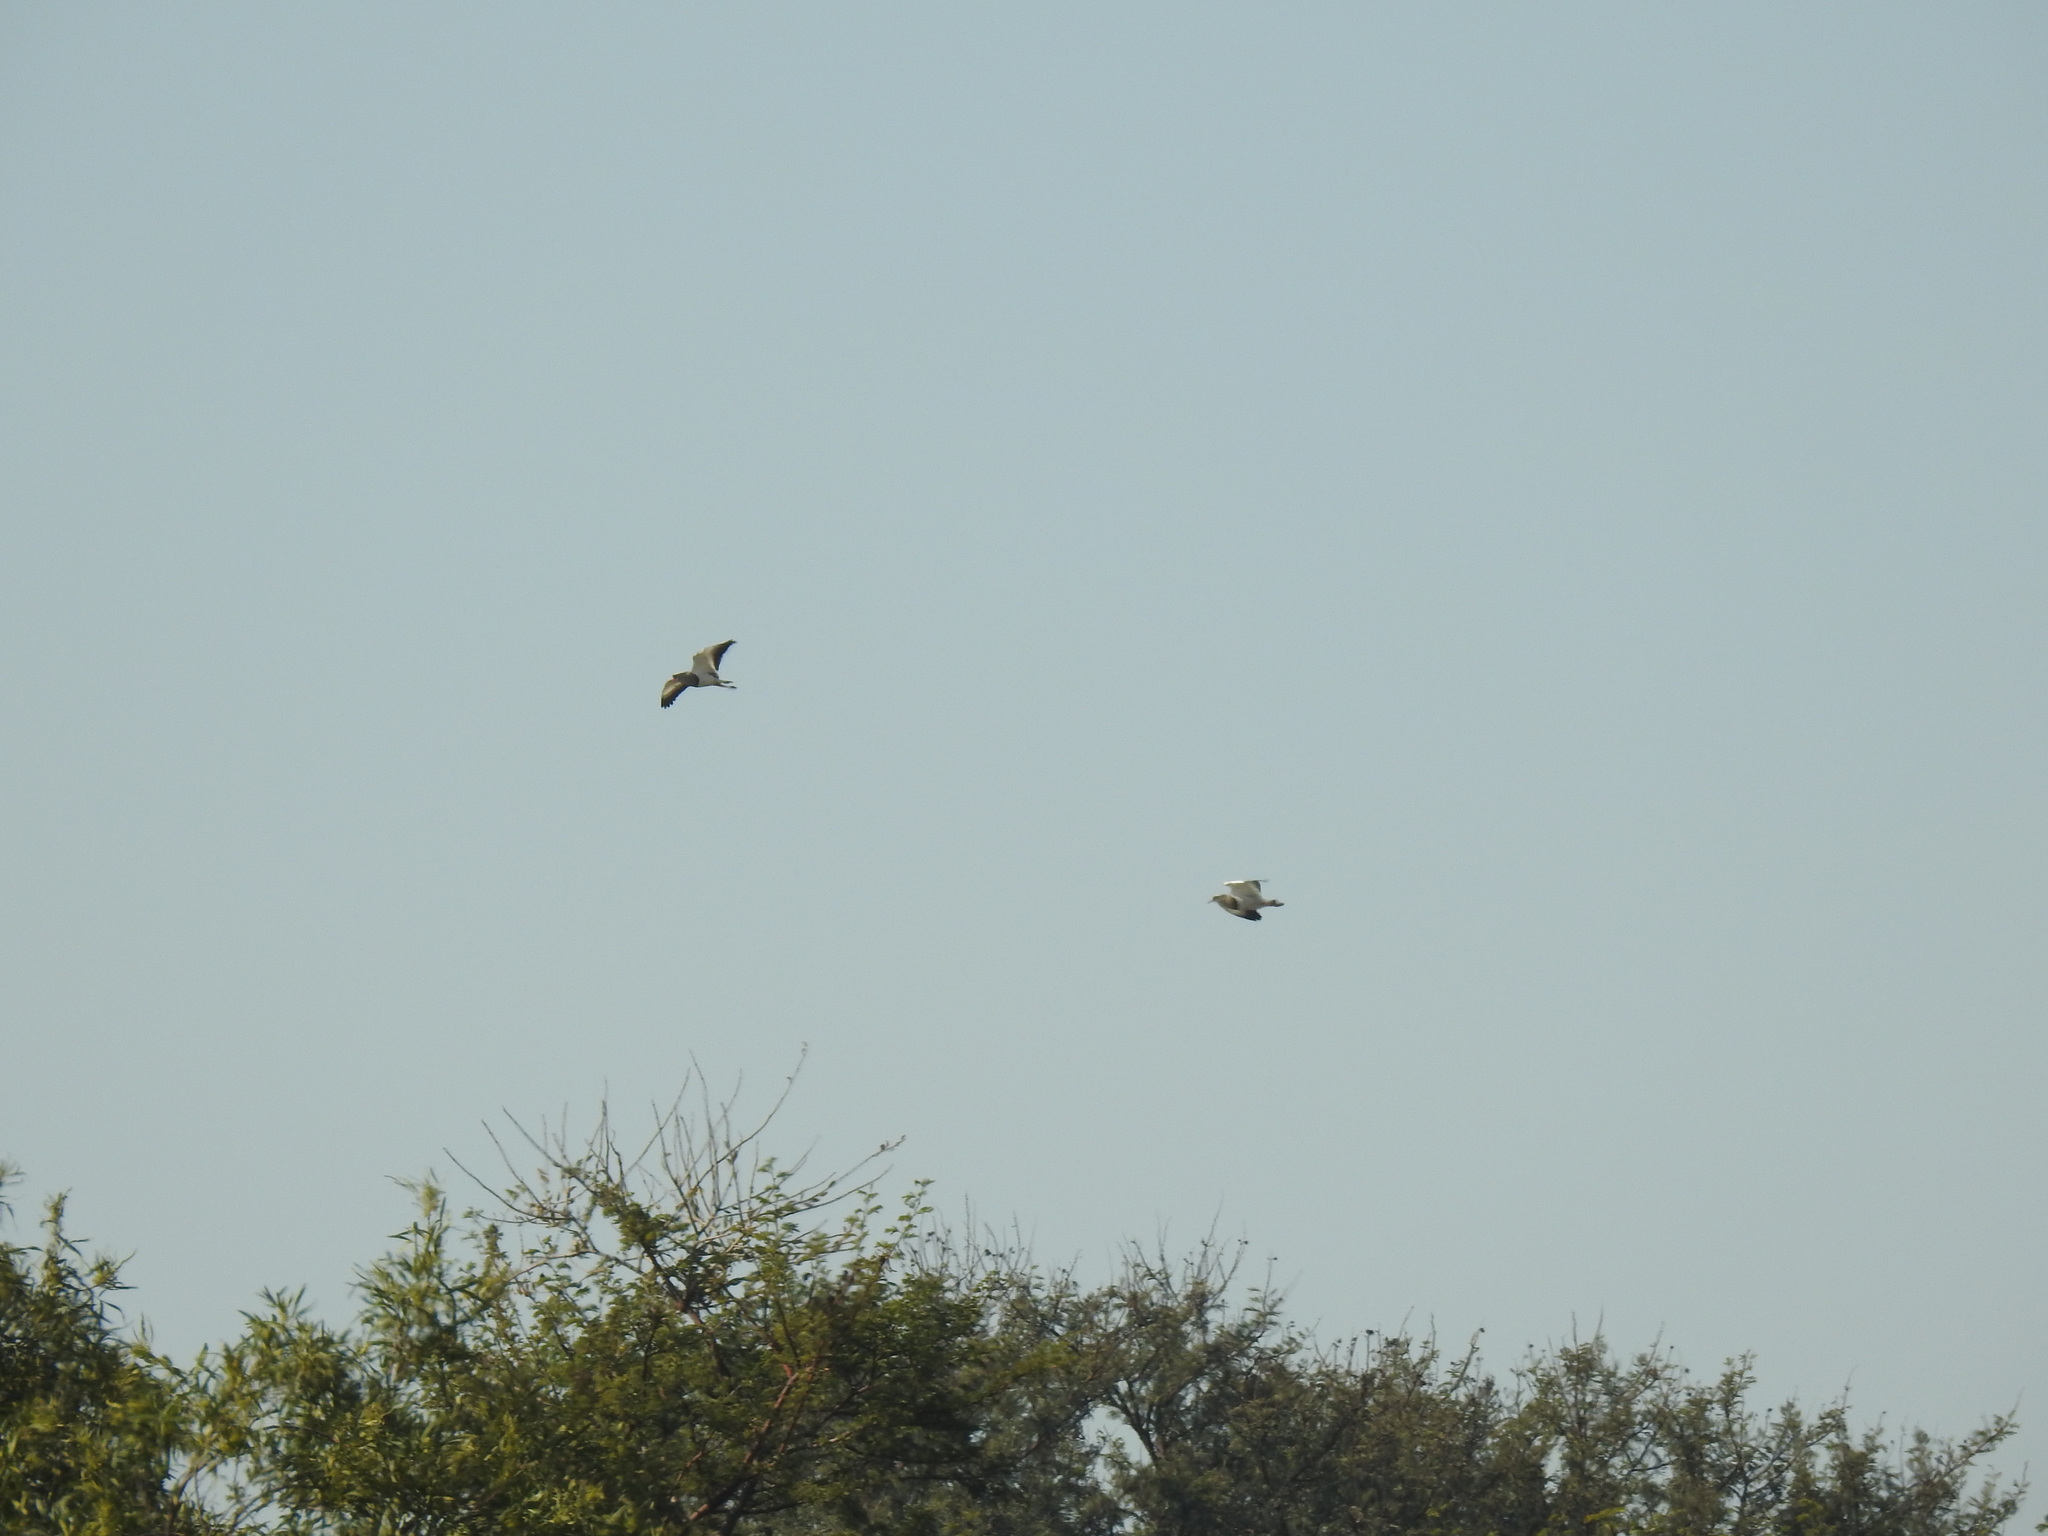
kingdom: Animalia
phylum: Chordata
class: Aves
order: Charadriiformes
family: Charadriidae
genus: Vanellus
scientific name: Vanellus coronatus
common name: Crowned lapwing
